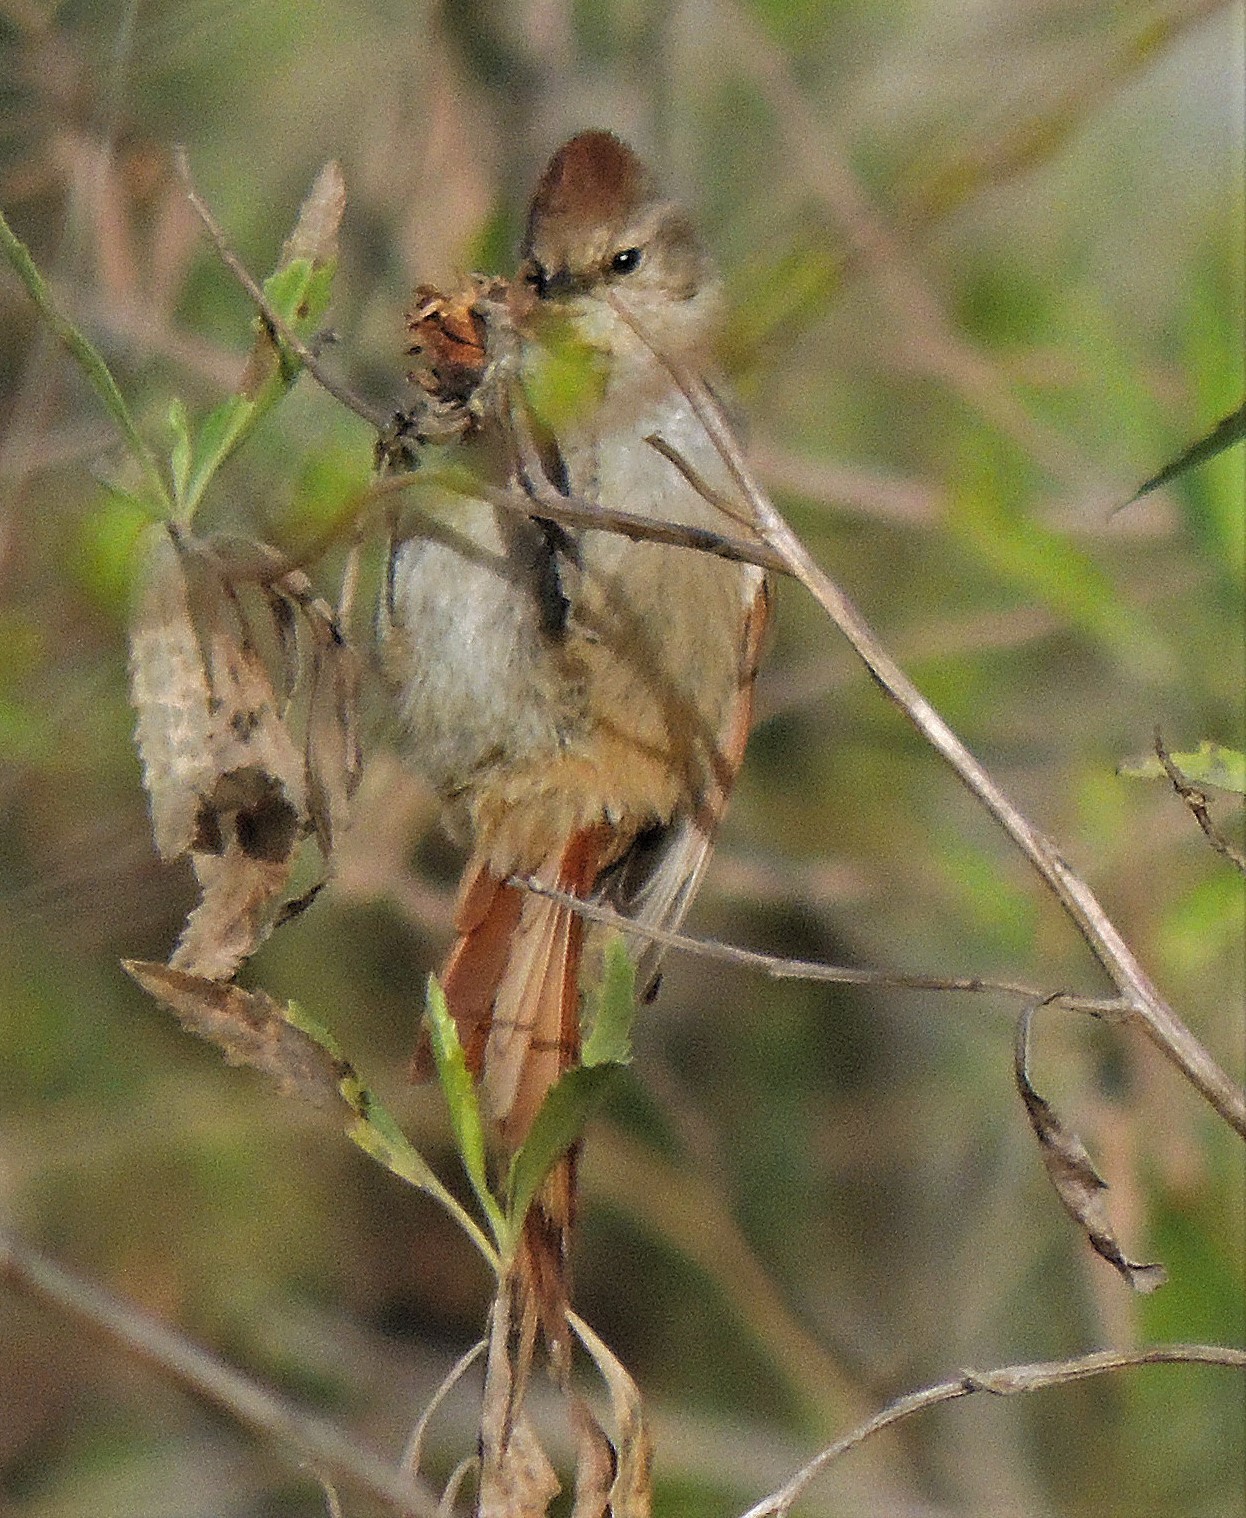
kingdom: Animalia
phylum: Chordata
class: Aves
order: Passeriformes
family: Furnariidae
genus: Leptasthenura
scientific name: Leptasthenura fuliginiceps
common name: Brown-capped tit-spinetail
